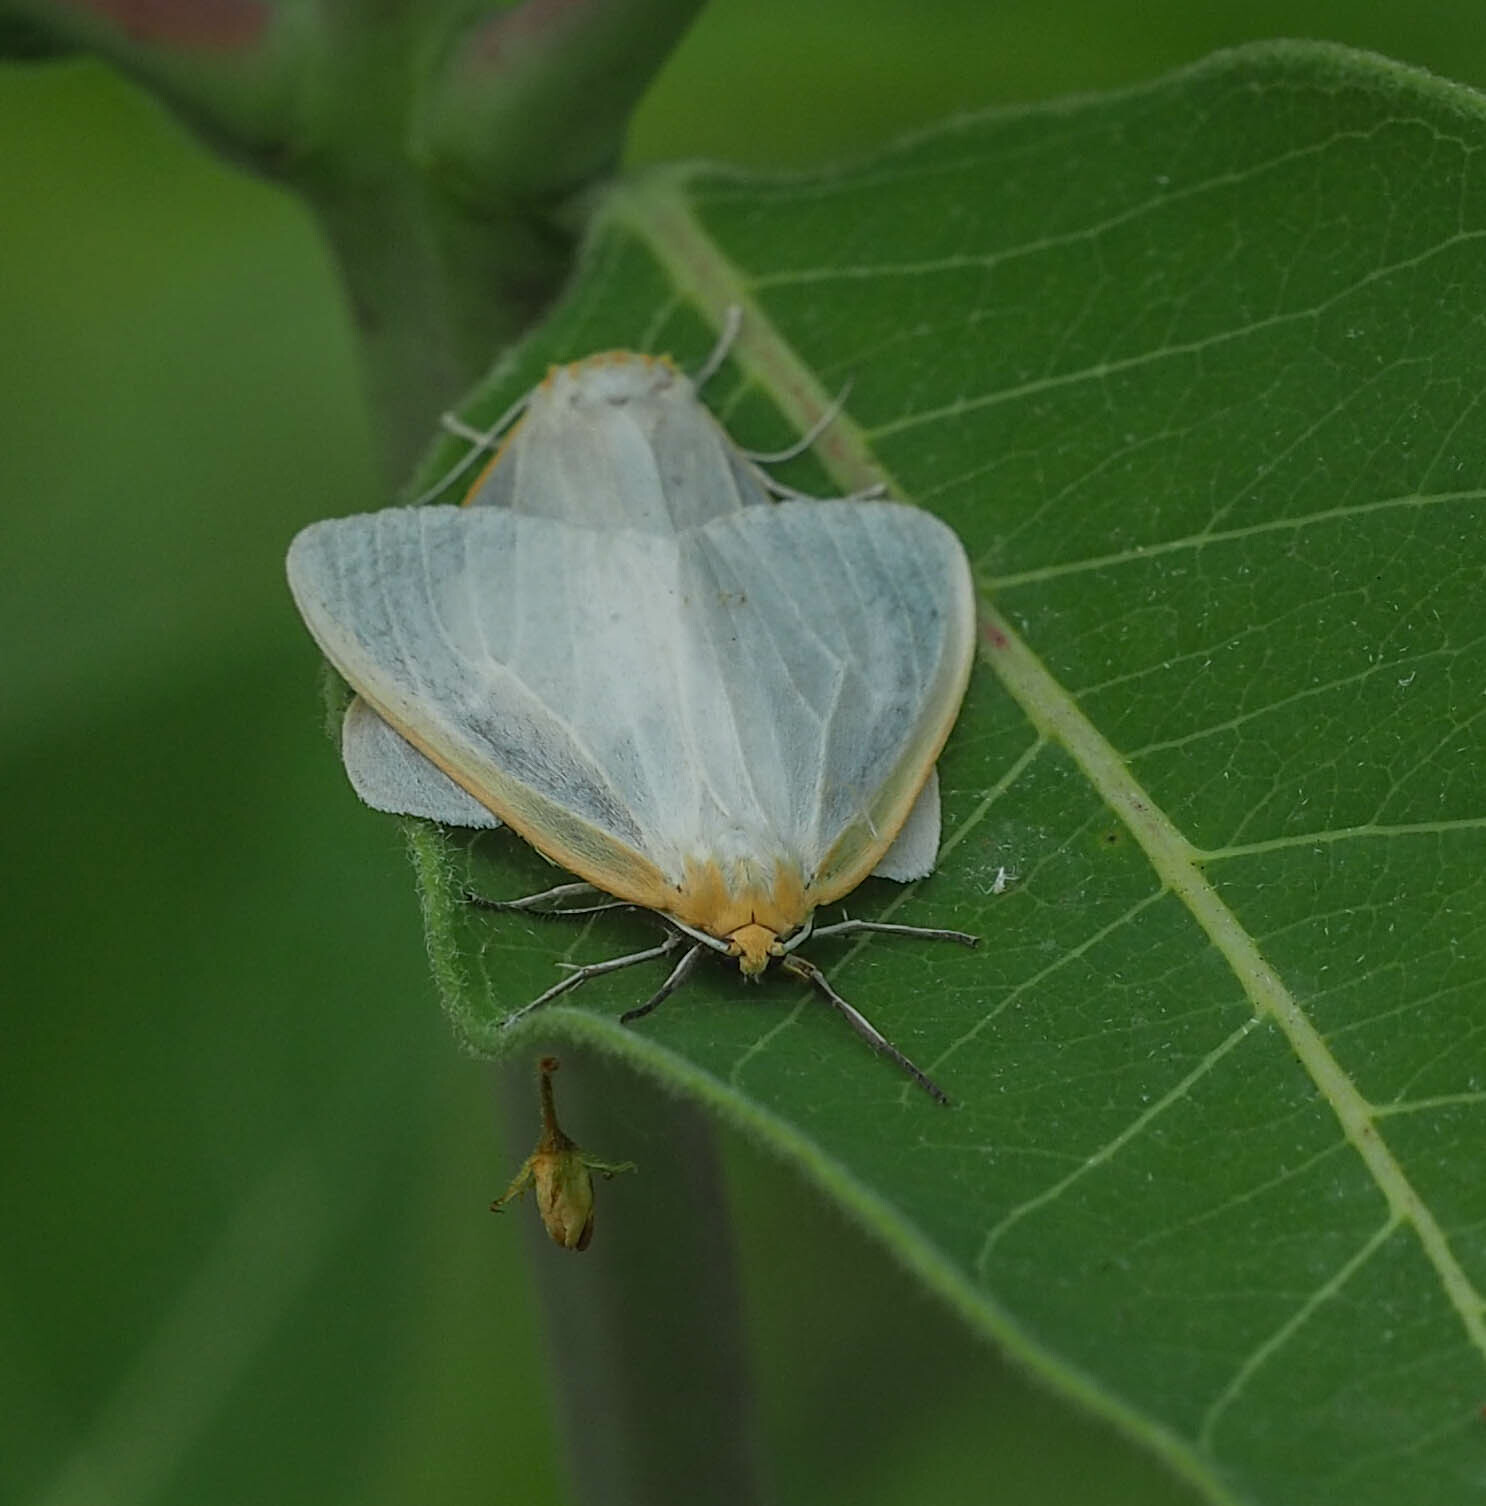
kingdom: Animalia
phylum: Arthropoda
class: Insecta
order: Lepidoptera
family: Erebidae
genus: Cycnia
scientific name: Cycnia tenera
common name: Delicate cycnia moth
